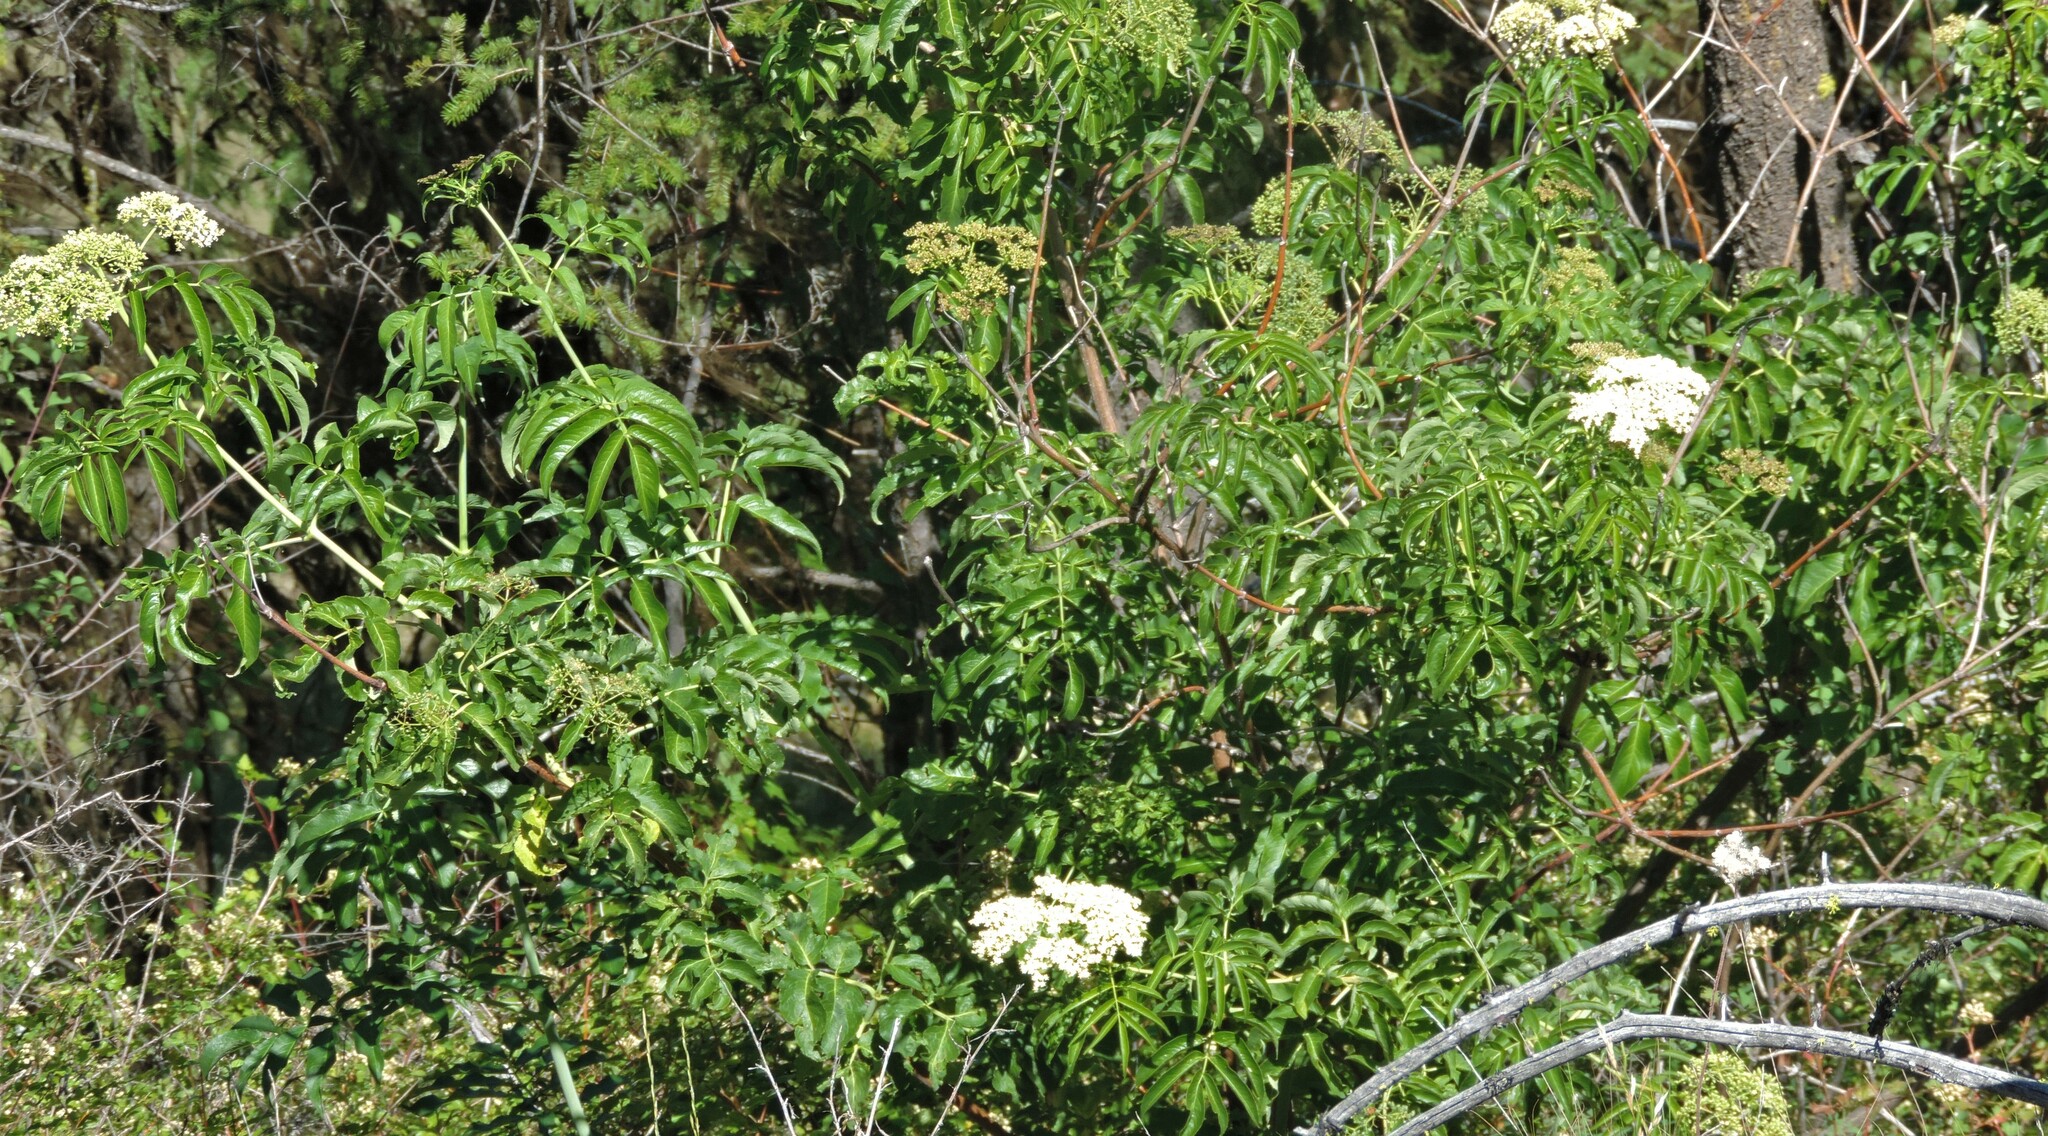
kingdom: Plantae
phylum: Tracheophyta
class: Magnoliopsida
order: Dipsacales
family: Viburnaceae
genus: Sambucus
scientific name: Sambucus cerulea
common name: Blue elder
